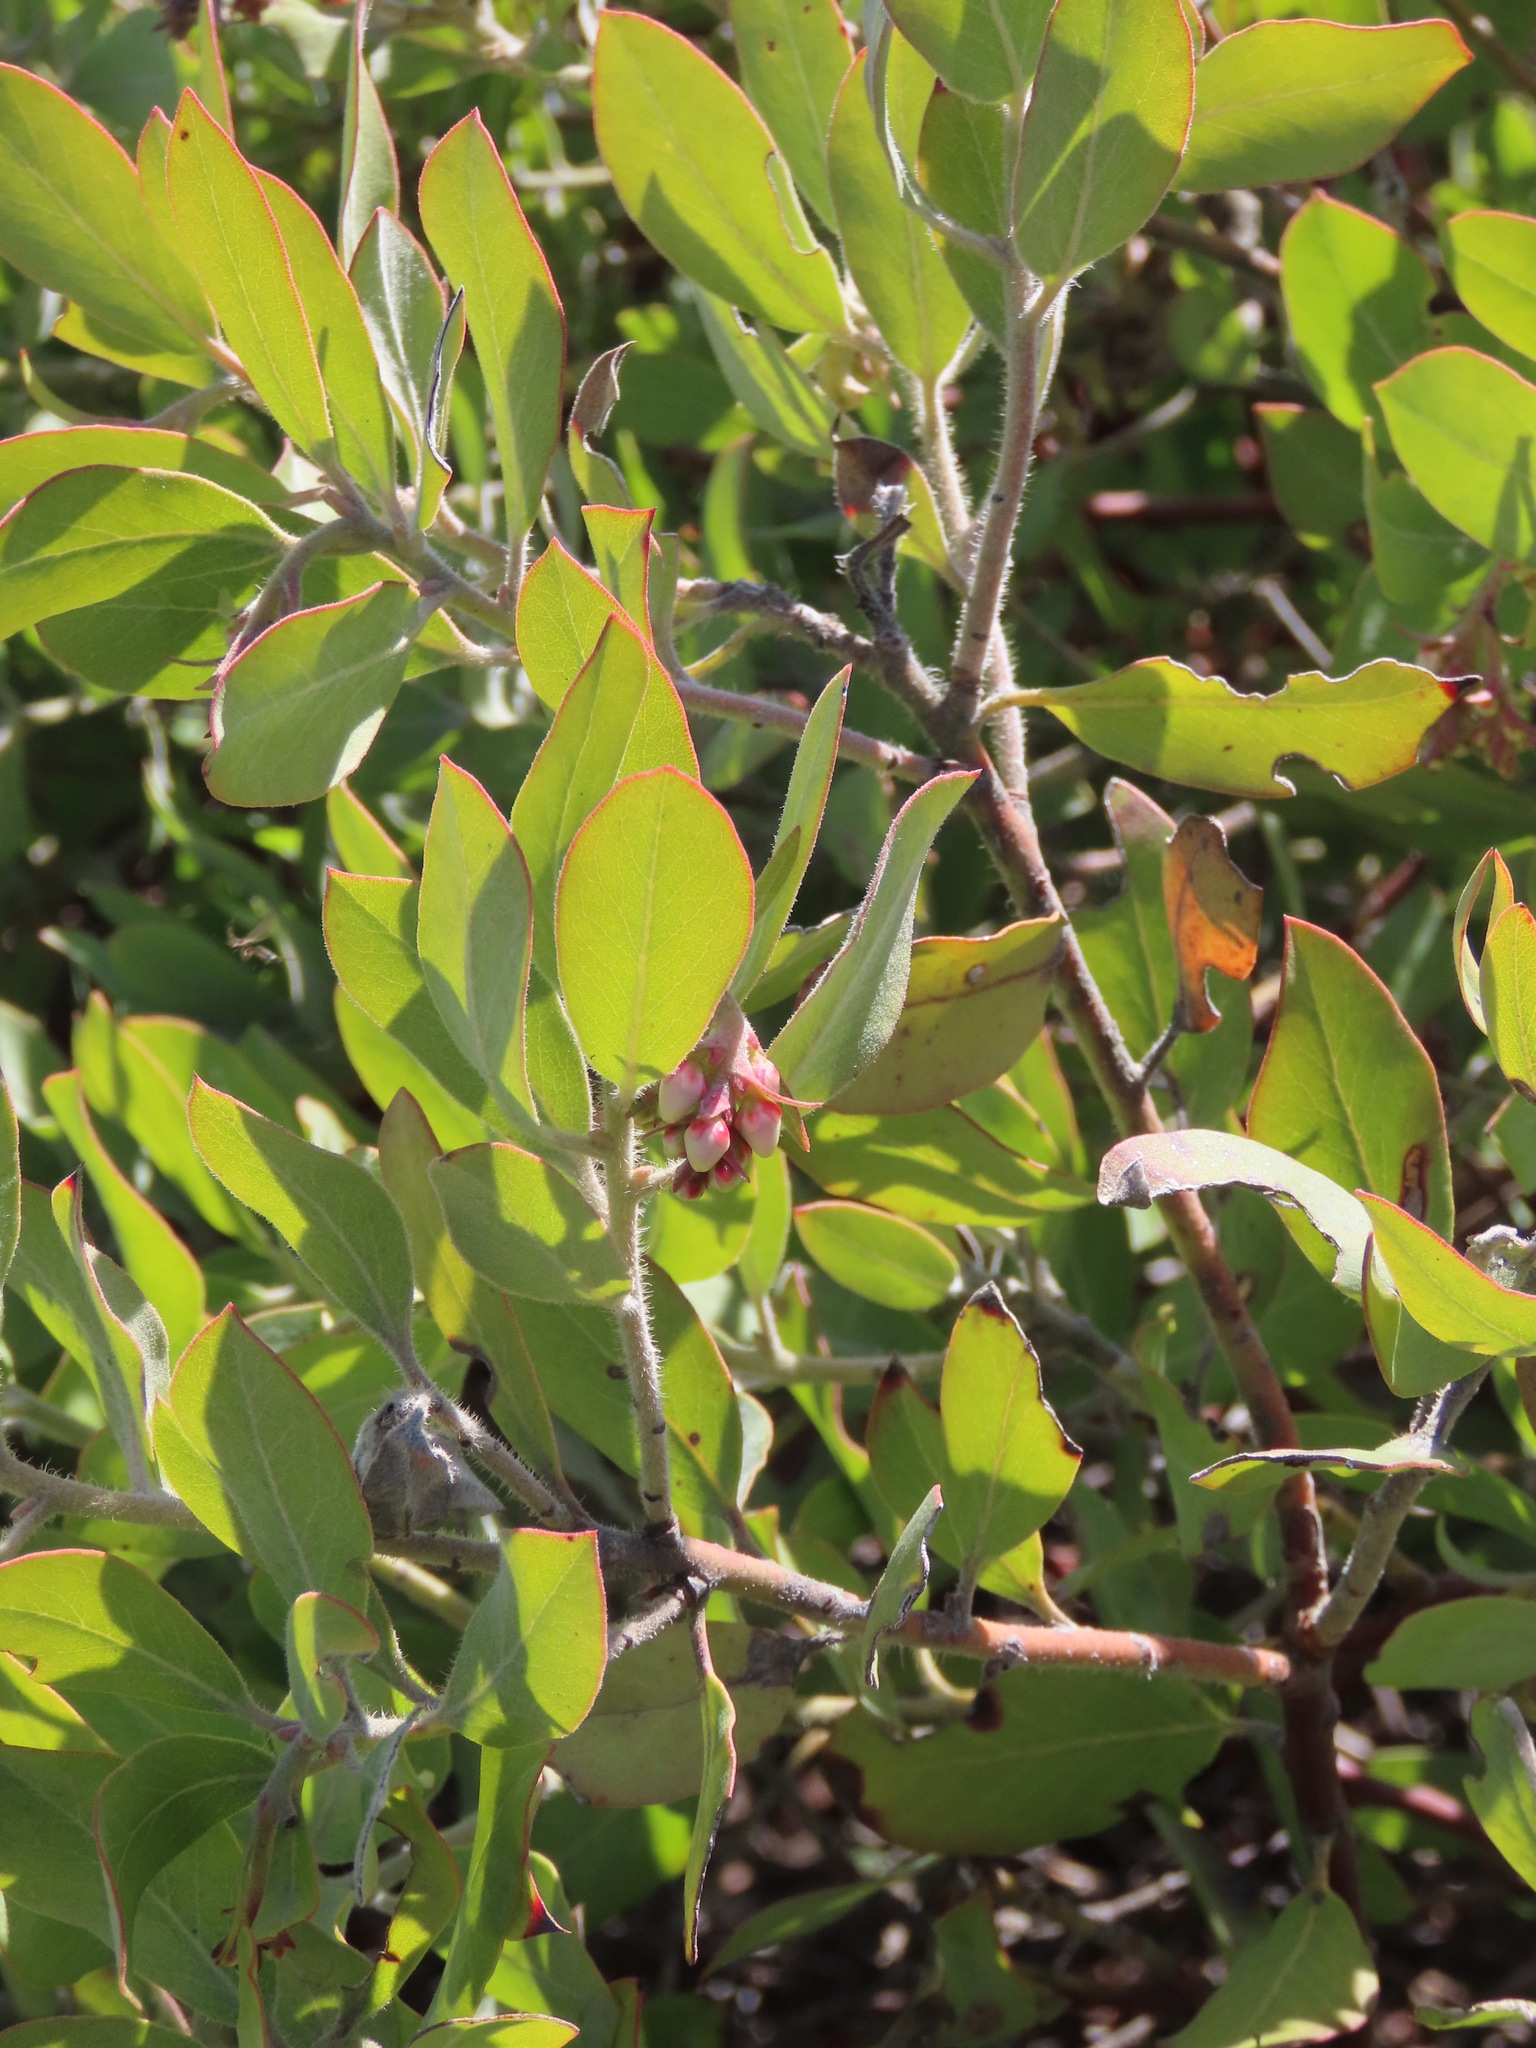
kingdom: Plantae
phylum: Tracheophyta
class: Magnoliopsida
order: Ericales
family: Ericaceae
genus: Arctostaphylos
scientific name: Arctostaphylos columbiana
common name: Bristly bearberry
